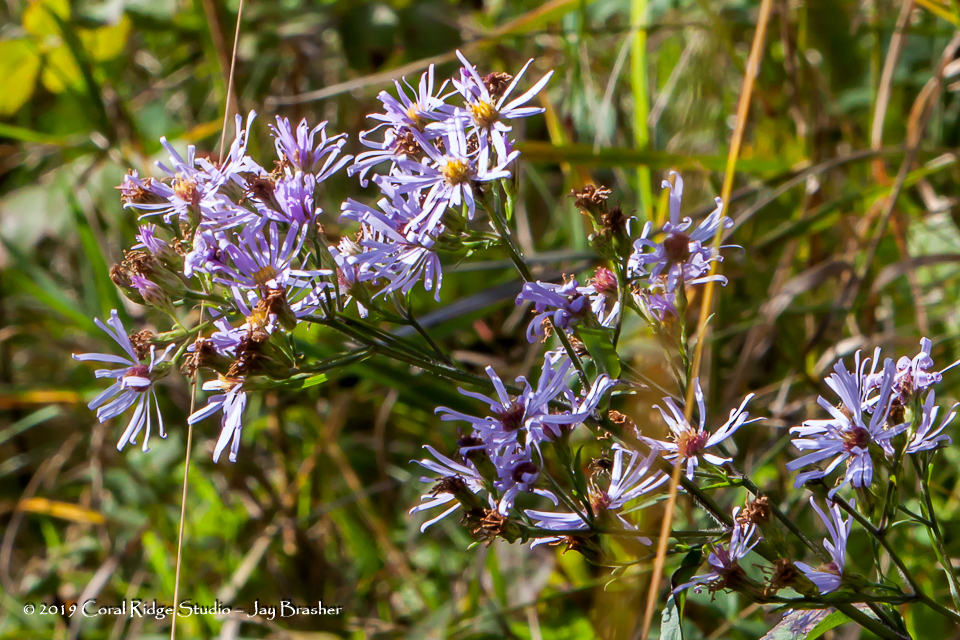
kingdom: Plantae
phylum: Tracheophyta
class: Magnoliopsida
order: Asterales
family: Asteraceae
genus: Eurybia
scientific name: Eurybia macrophylla
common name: Big-leaved aster
